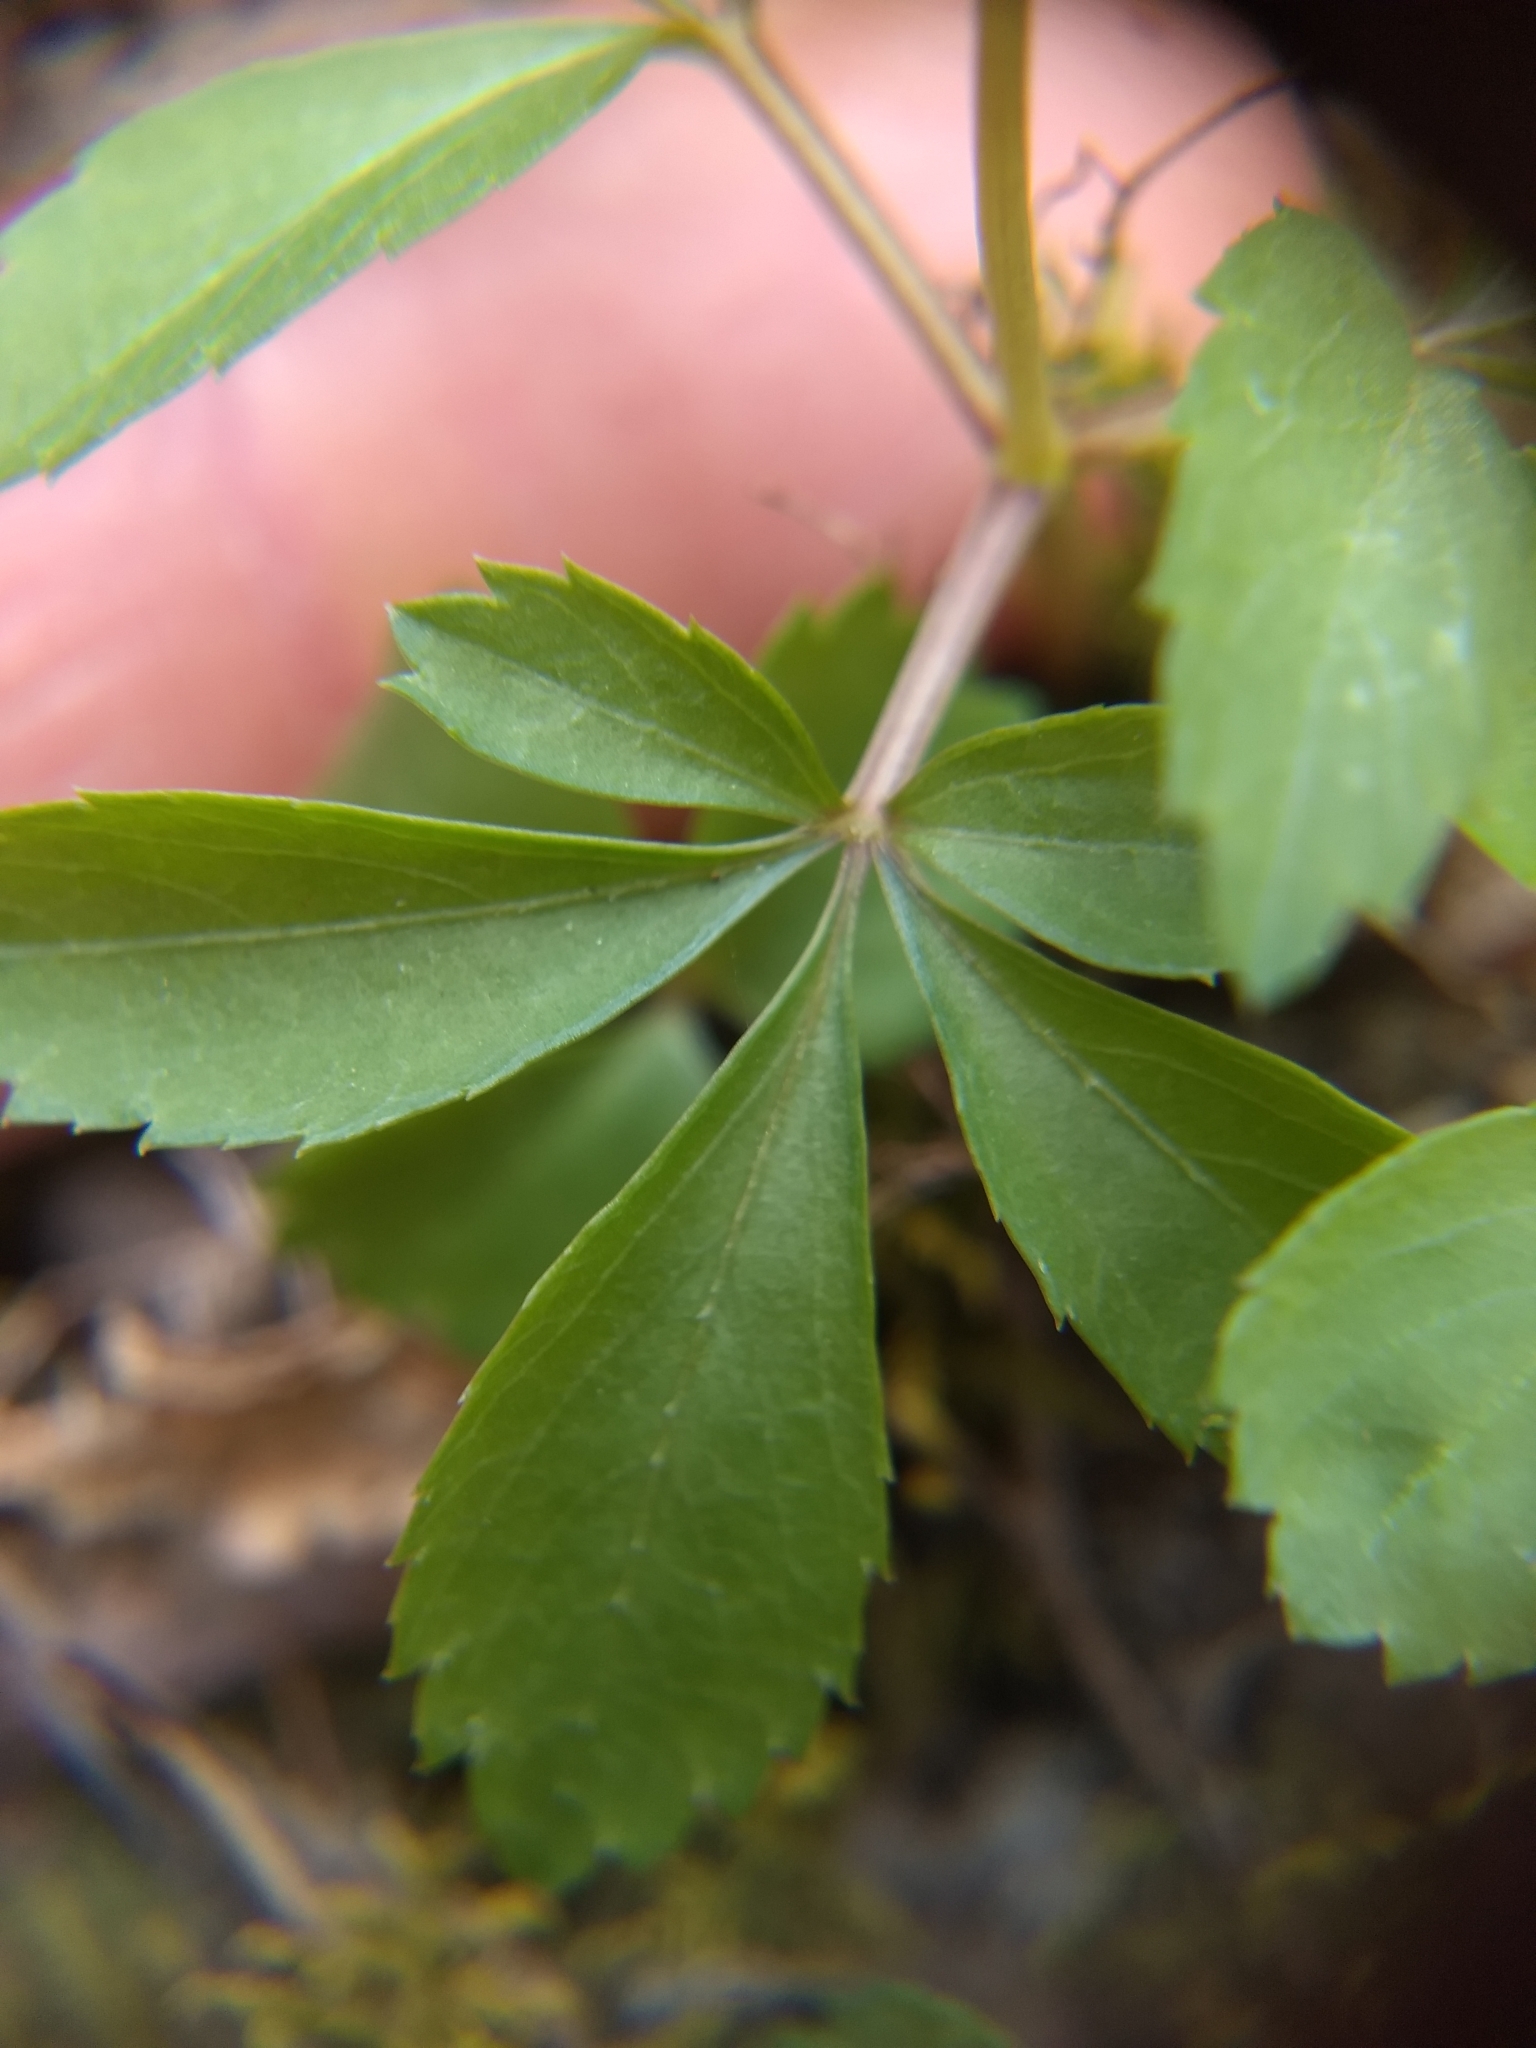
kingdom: Plantae
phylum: Tracheophyta
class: Magnoliopsida
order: Apiales
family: Araliaceae
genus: Panax
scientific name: Panax trifolius
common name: Dwarf ginseng
